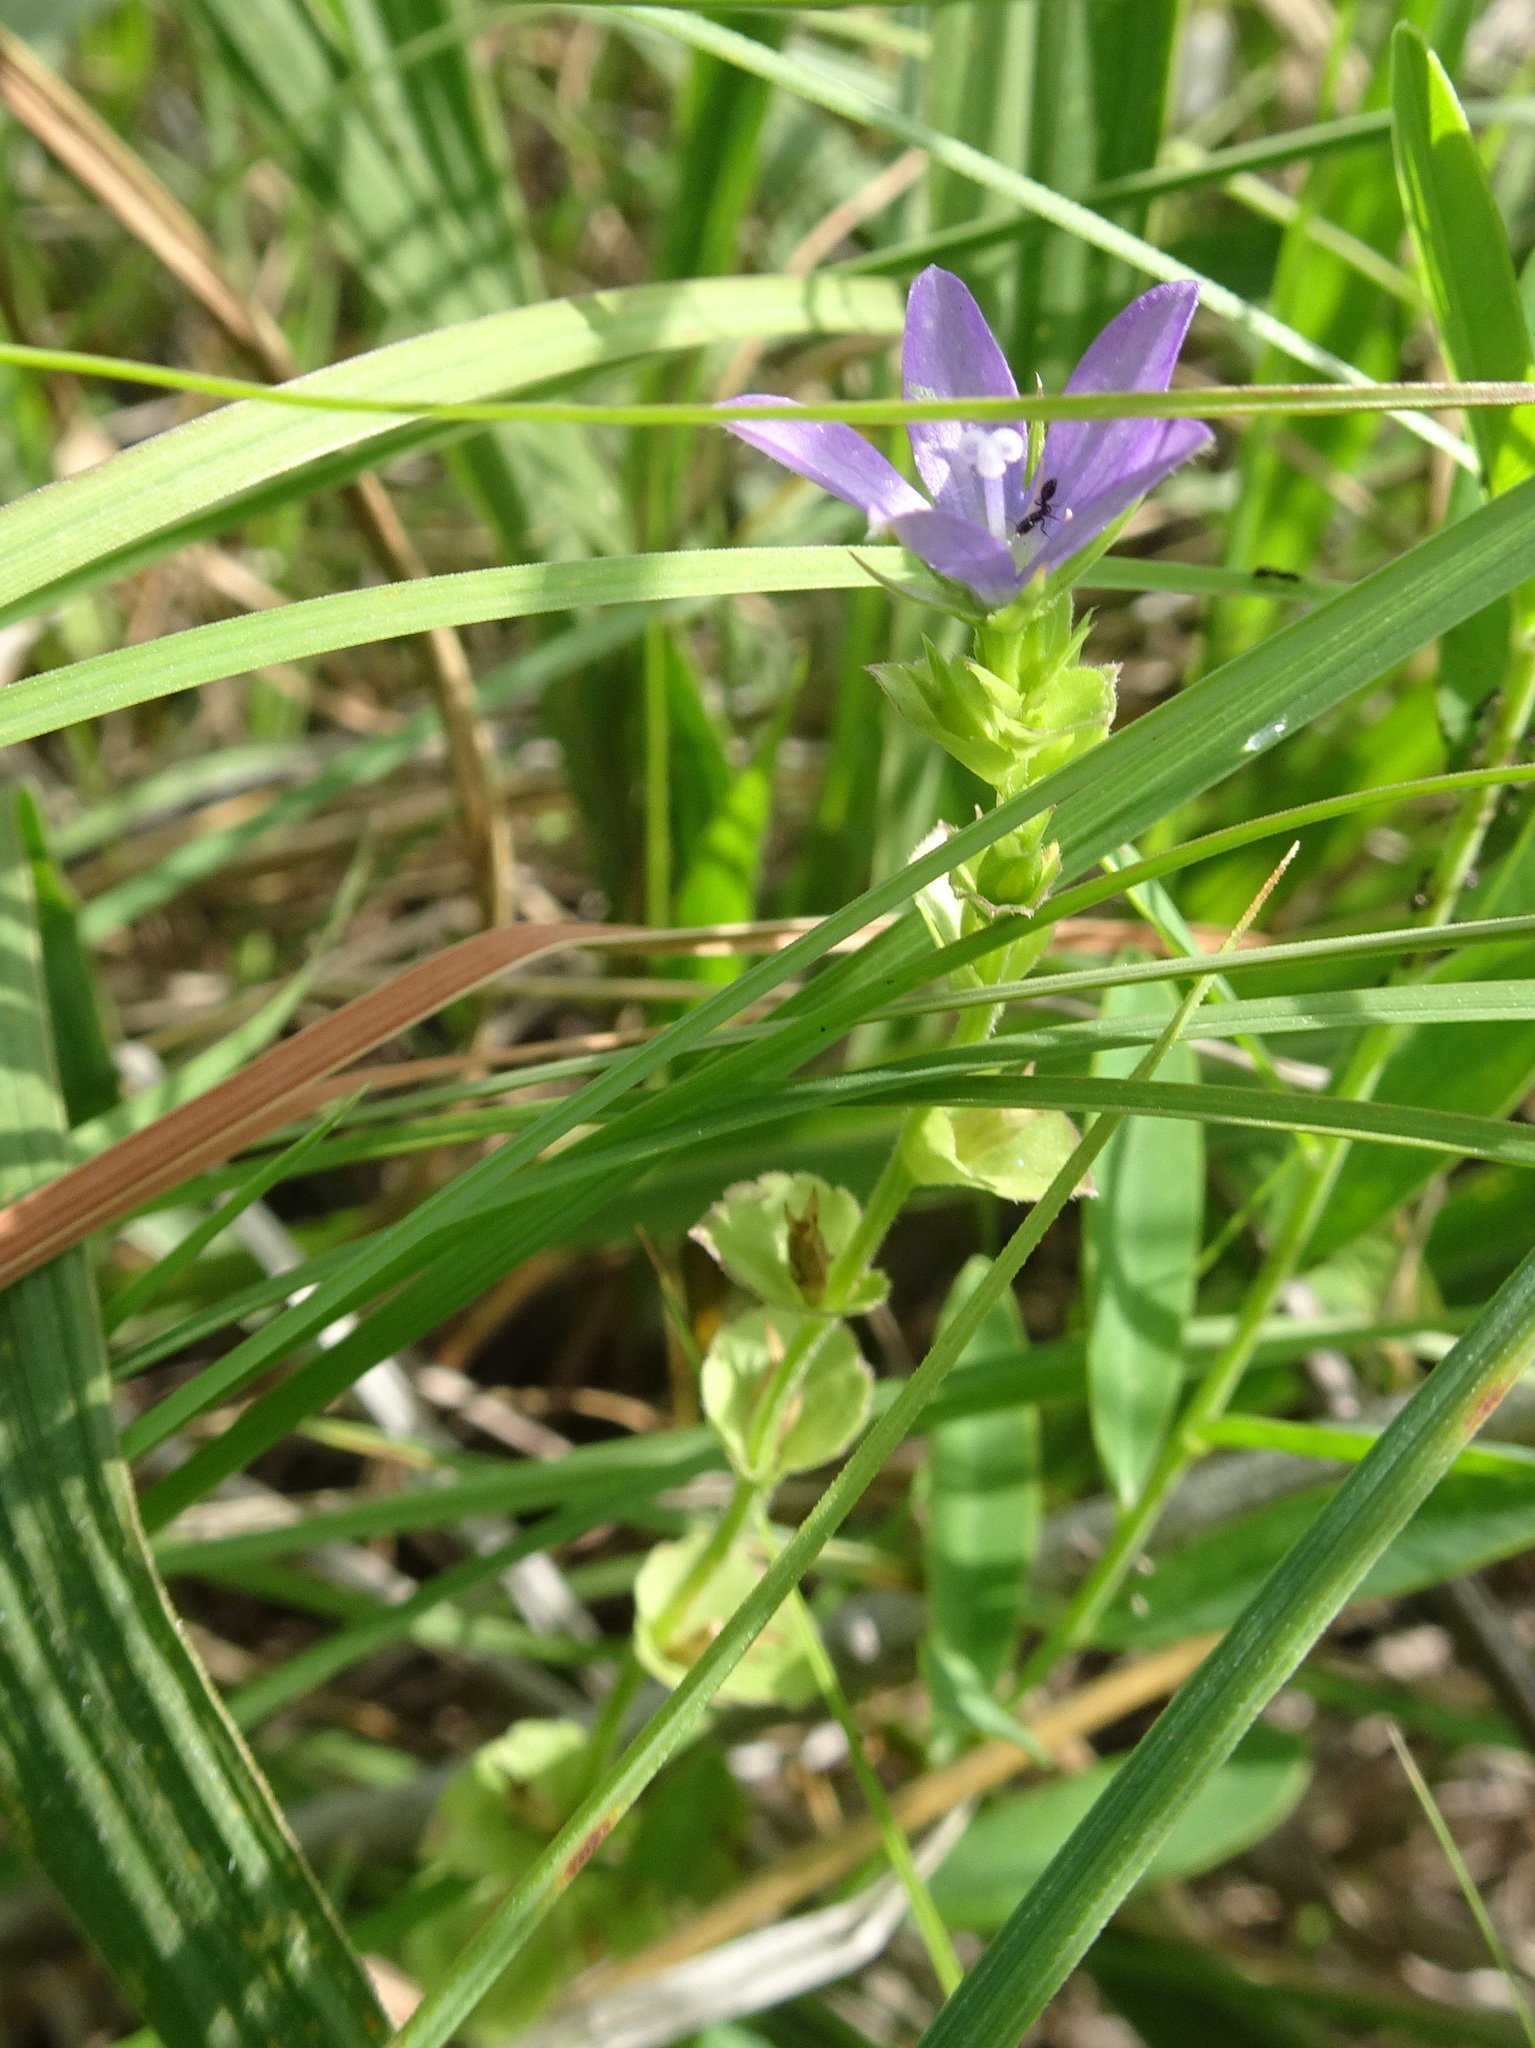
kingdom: Plantae
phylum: Tracheophyta
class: Magnoliopsida
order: Asterales
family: Campanulaceae
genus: Triodanis
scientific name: Triodanis perfoliata
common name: Clasping venus' looking-glass
